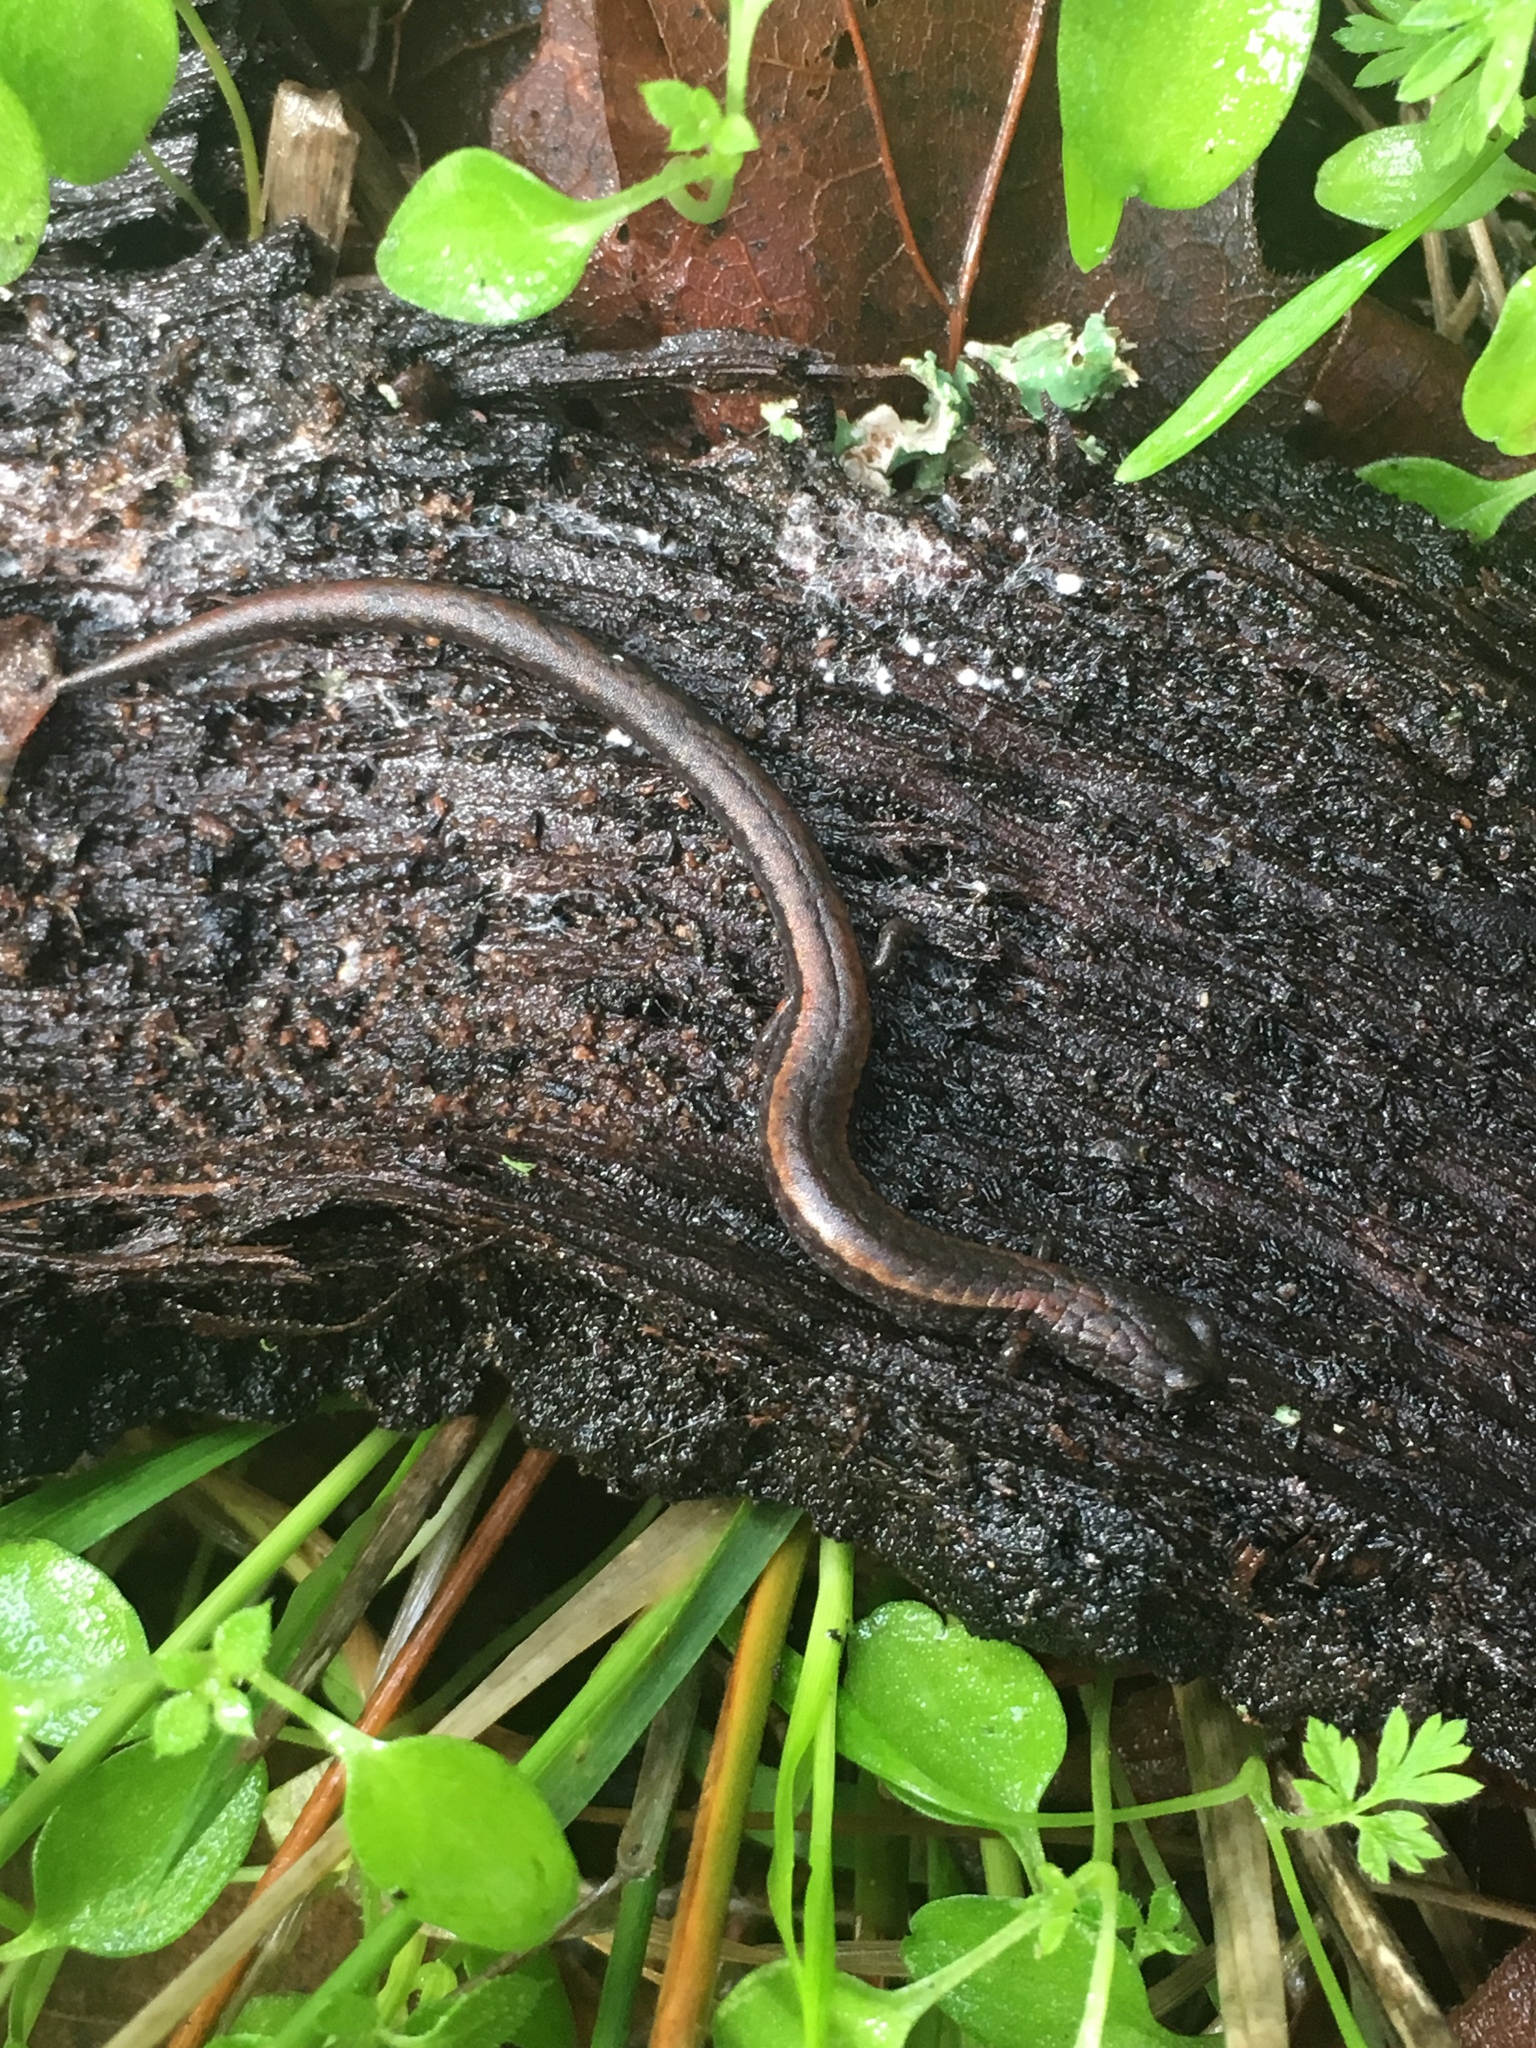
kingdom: Animalia
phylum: Chordata
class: Amphibia
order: Caudata
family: Plethodontidae
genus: Batrachoseps
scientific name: Batrachoseps nigriventris
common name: Black-bellied slender salamander
